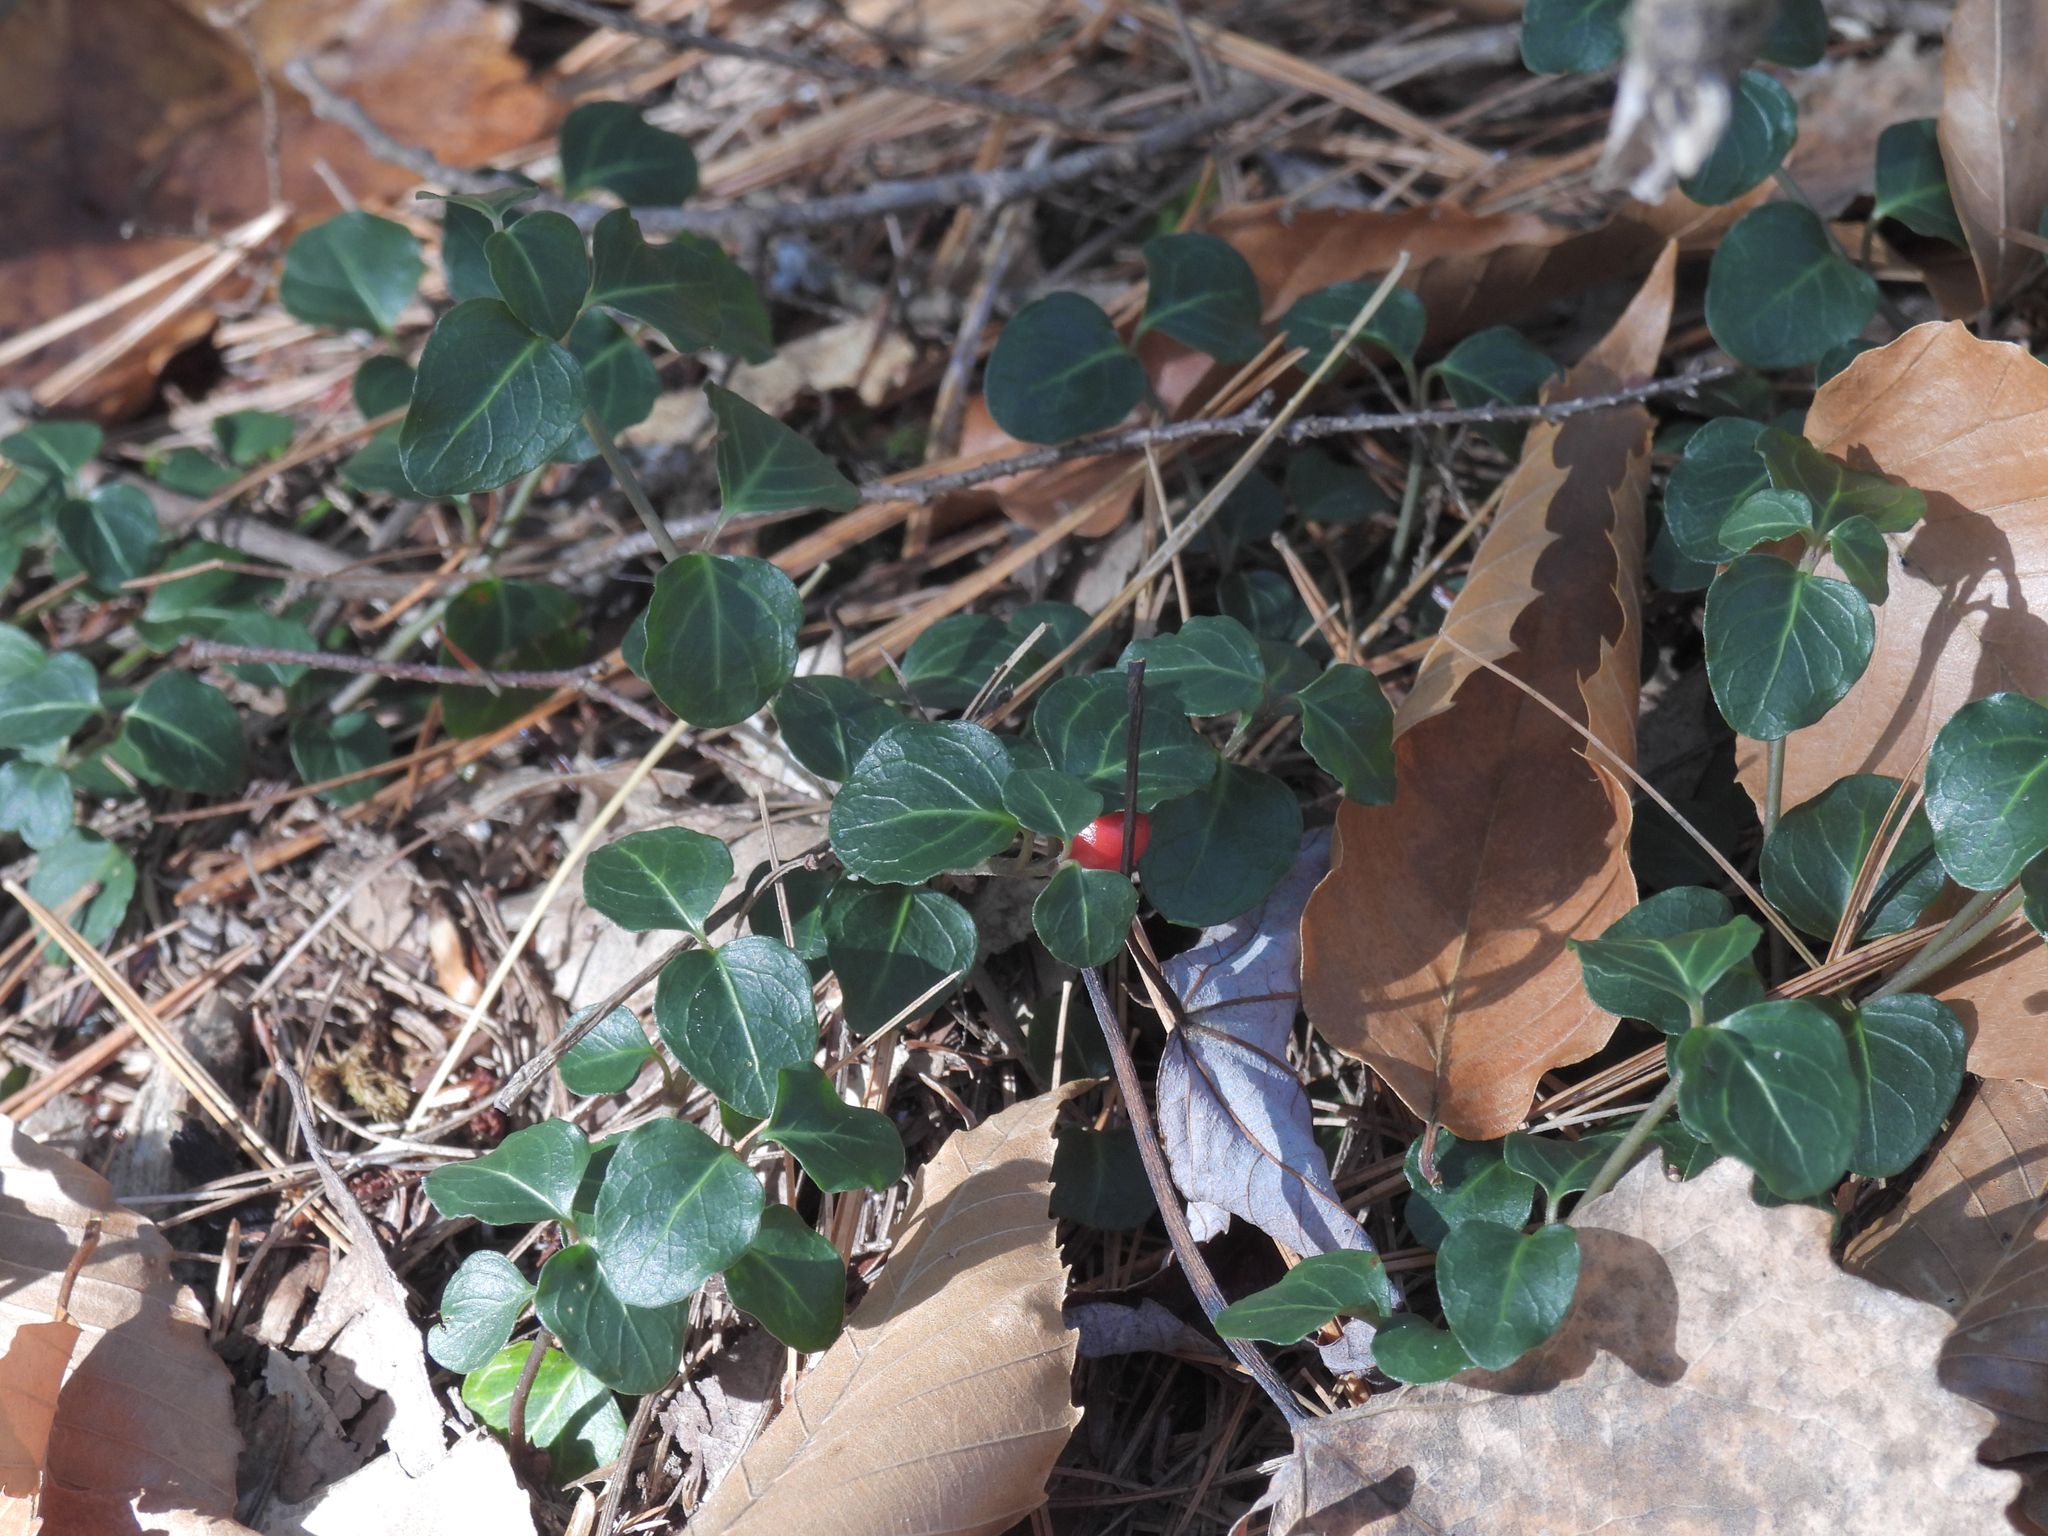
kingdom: Plantae
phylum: Tracheophyta
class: Magnoliopsida
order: Gentianales
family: Rubiaceae
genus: Mitchella
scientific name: Mitchella repens
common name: Partridge-berry
